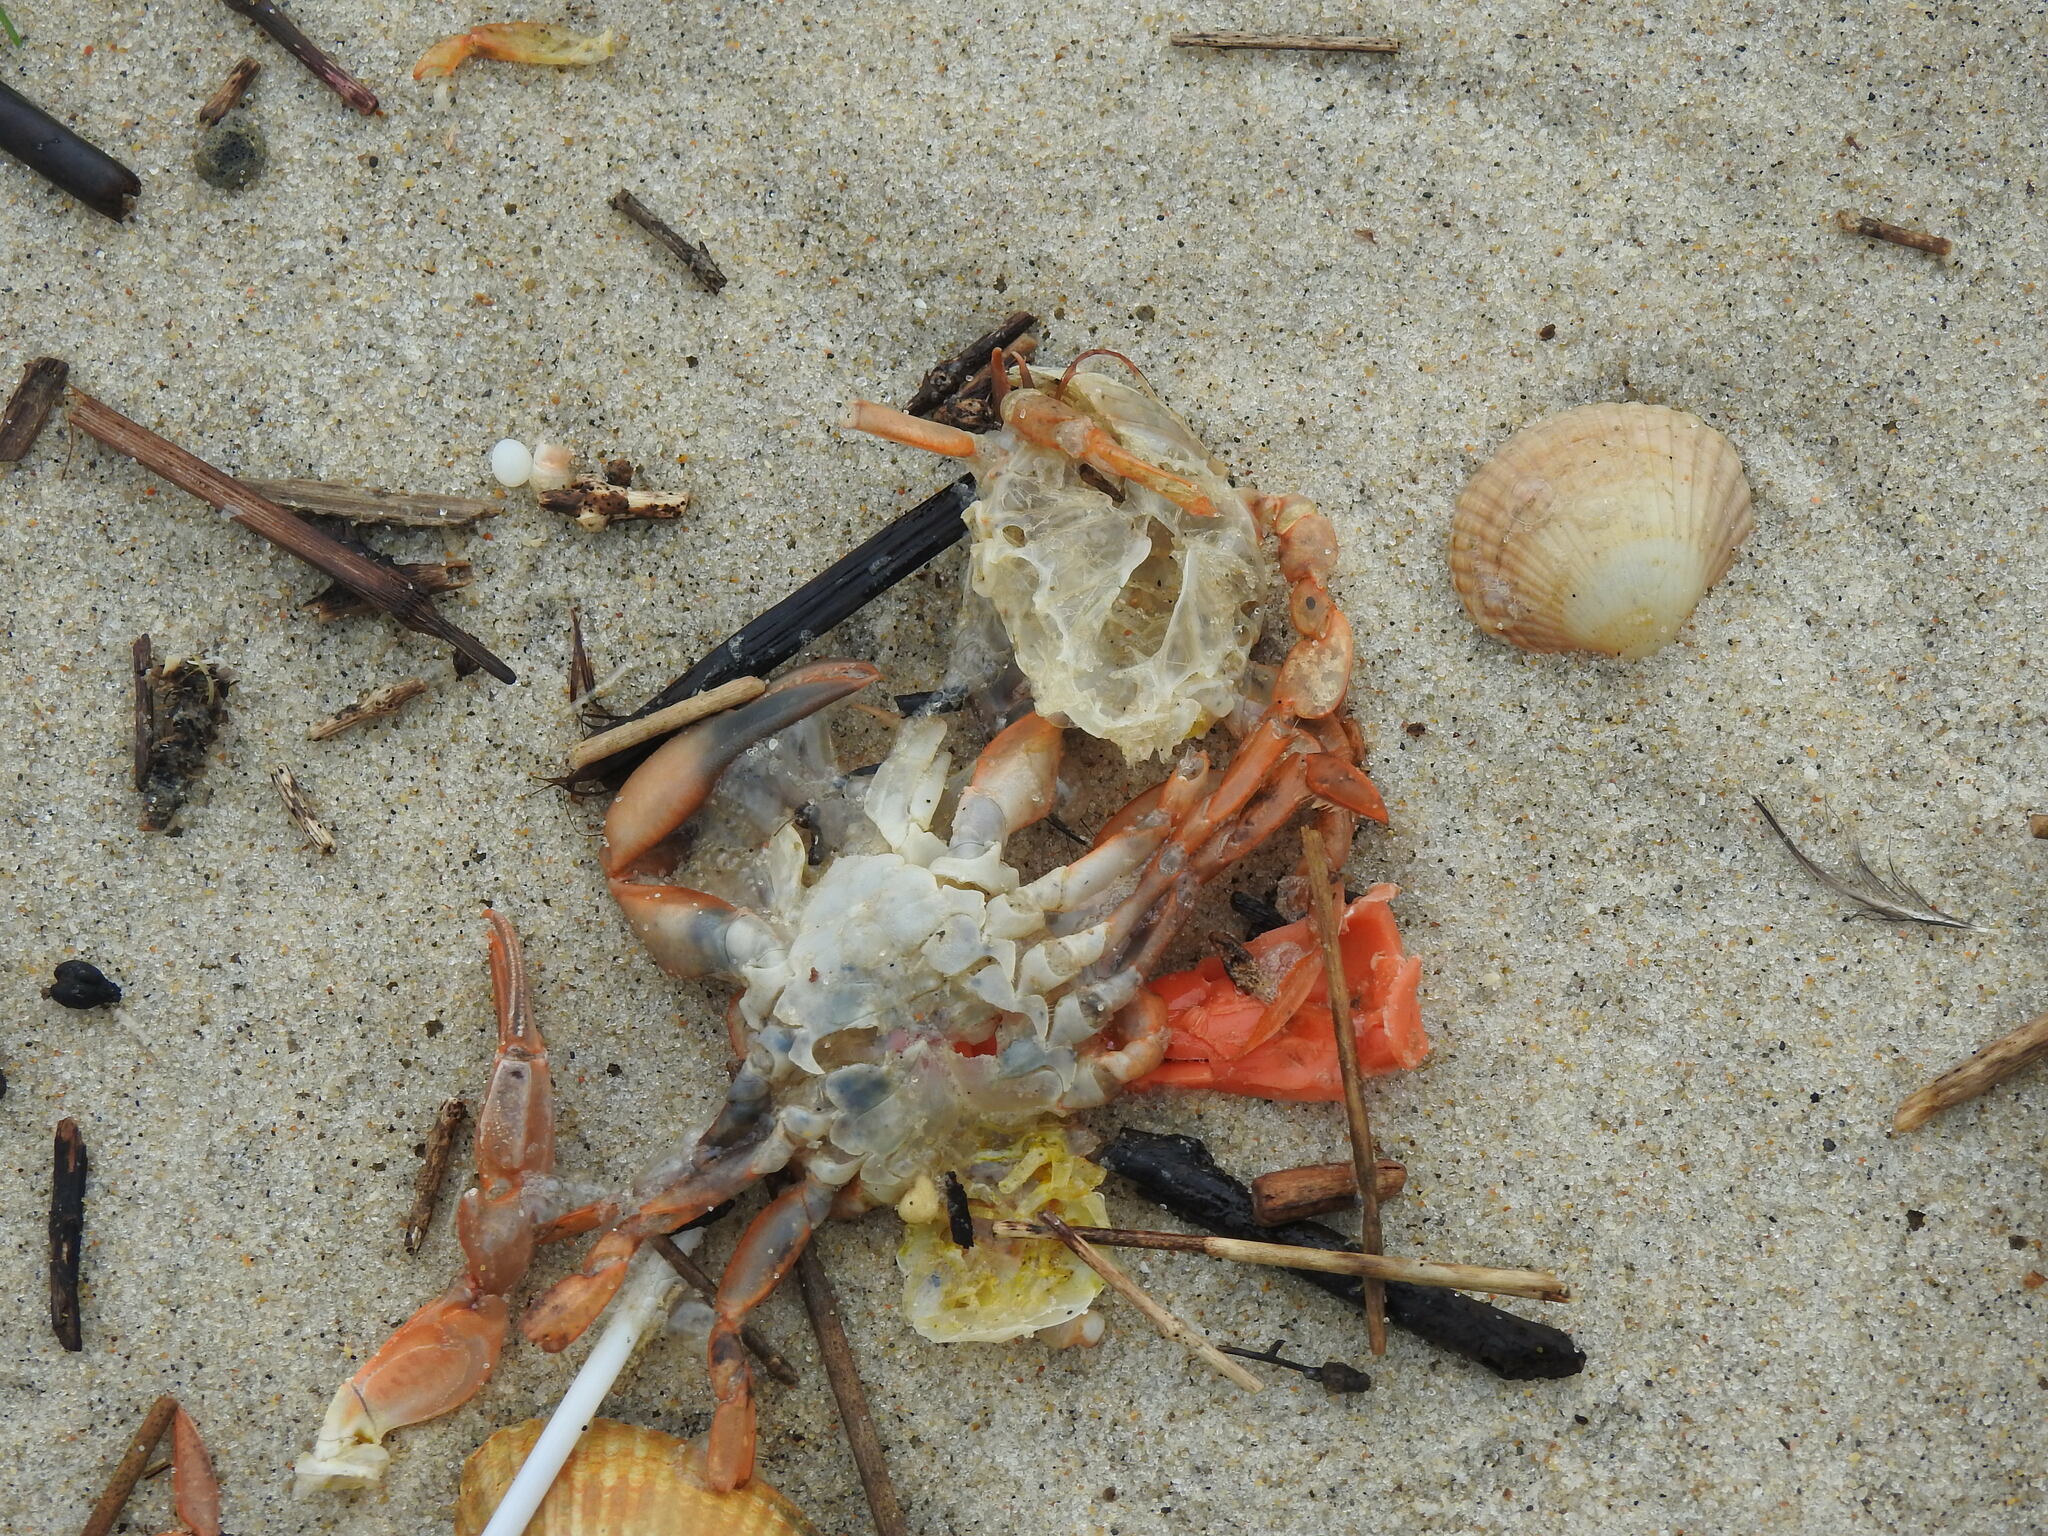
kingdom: Animalia
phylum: Arthropoda
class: Malacostraca
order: Decapoda
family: Polybiidae
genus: Polybius
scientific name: Polybius henslowii
